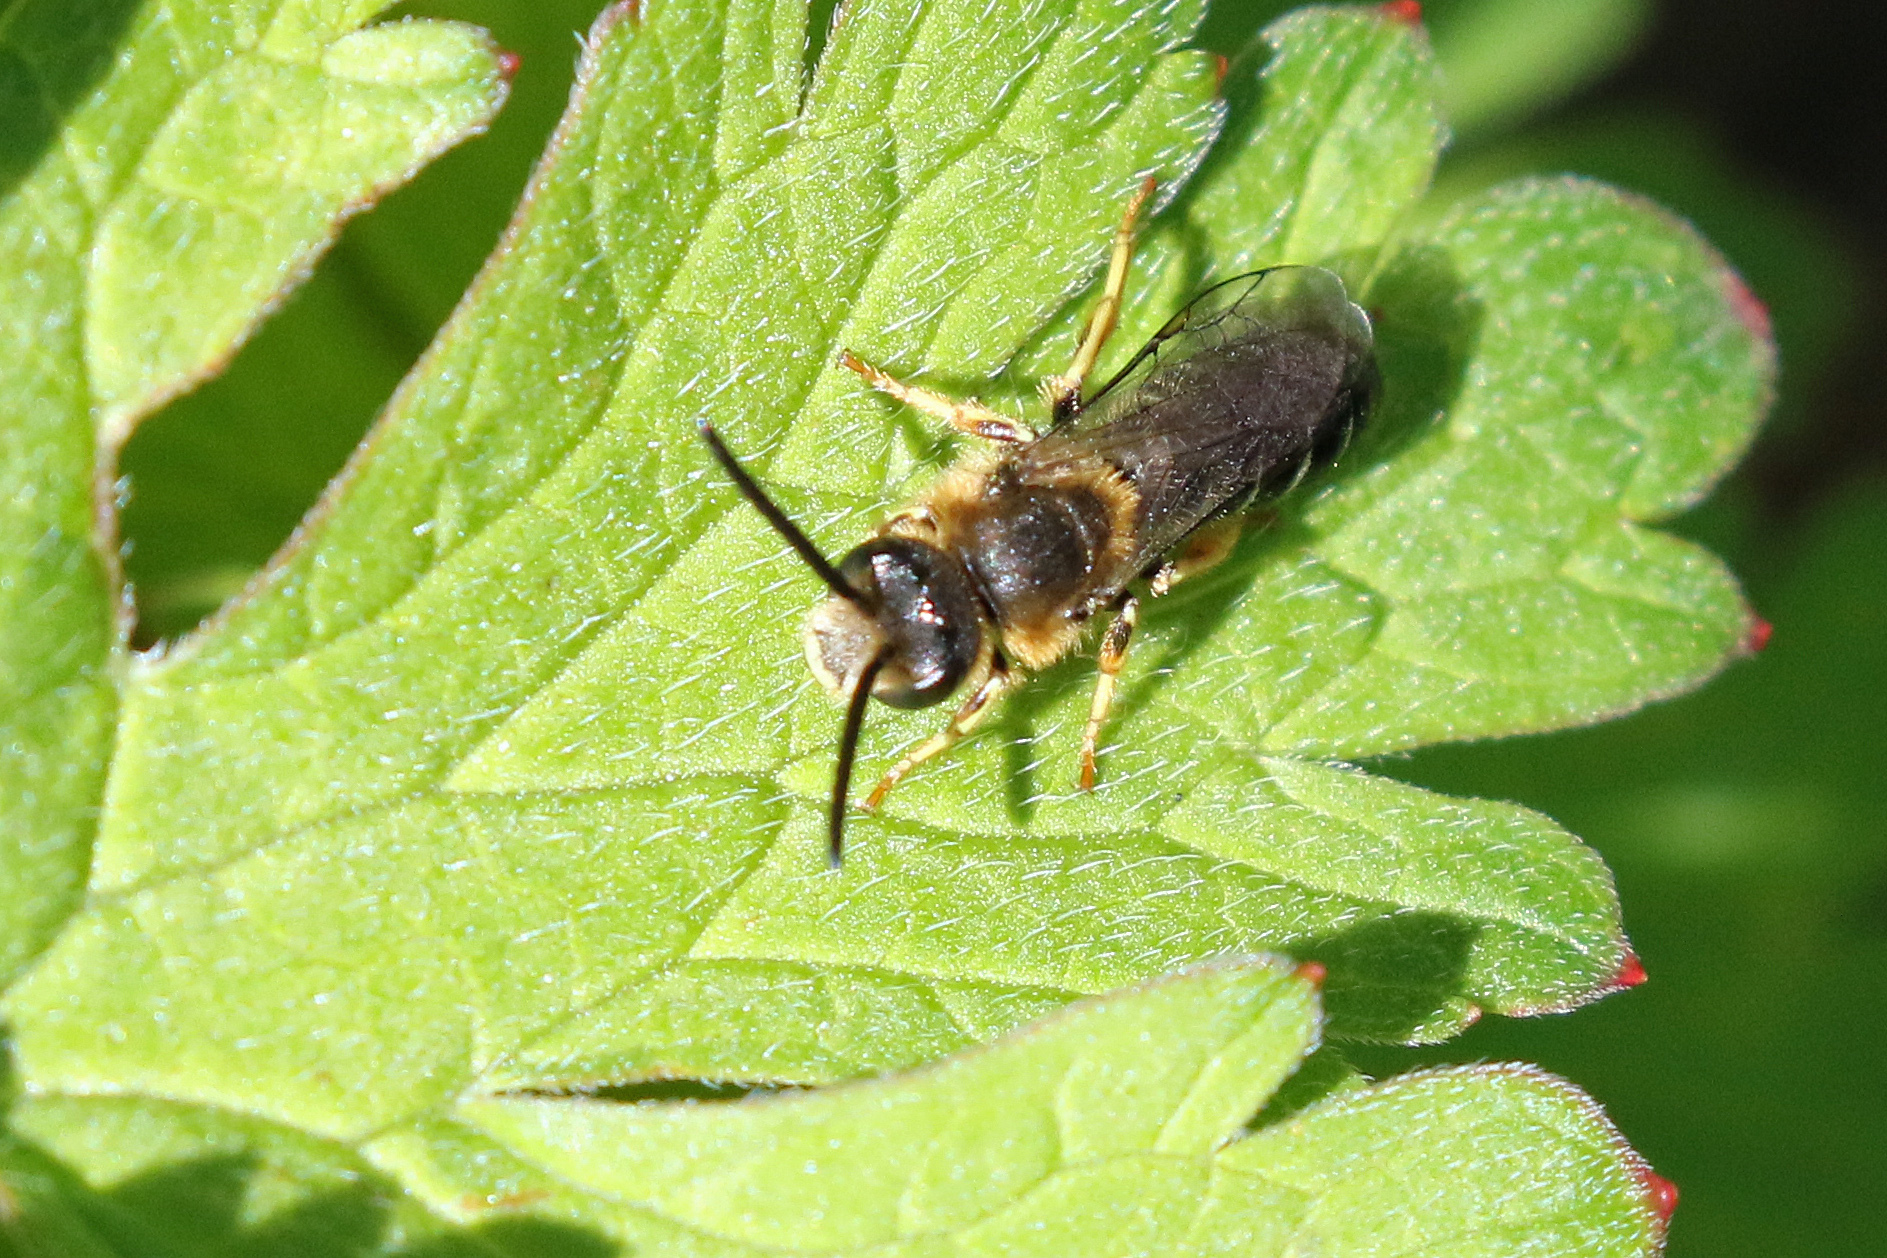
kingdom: Animalia
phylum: Arthropoda
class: Insecta
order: Hymenoptera
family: Halictidae
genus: Halictus
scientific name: Halictus rubicundus
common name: Orange-legged furrow bee
